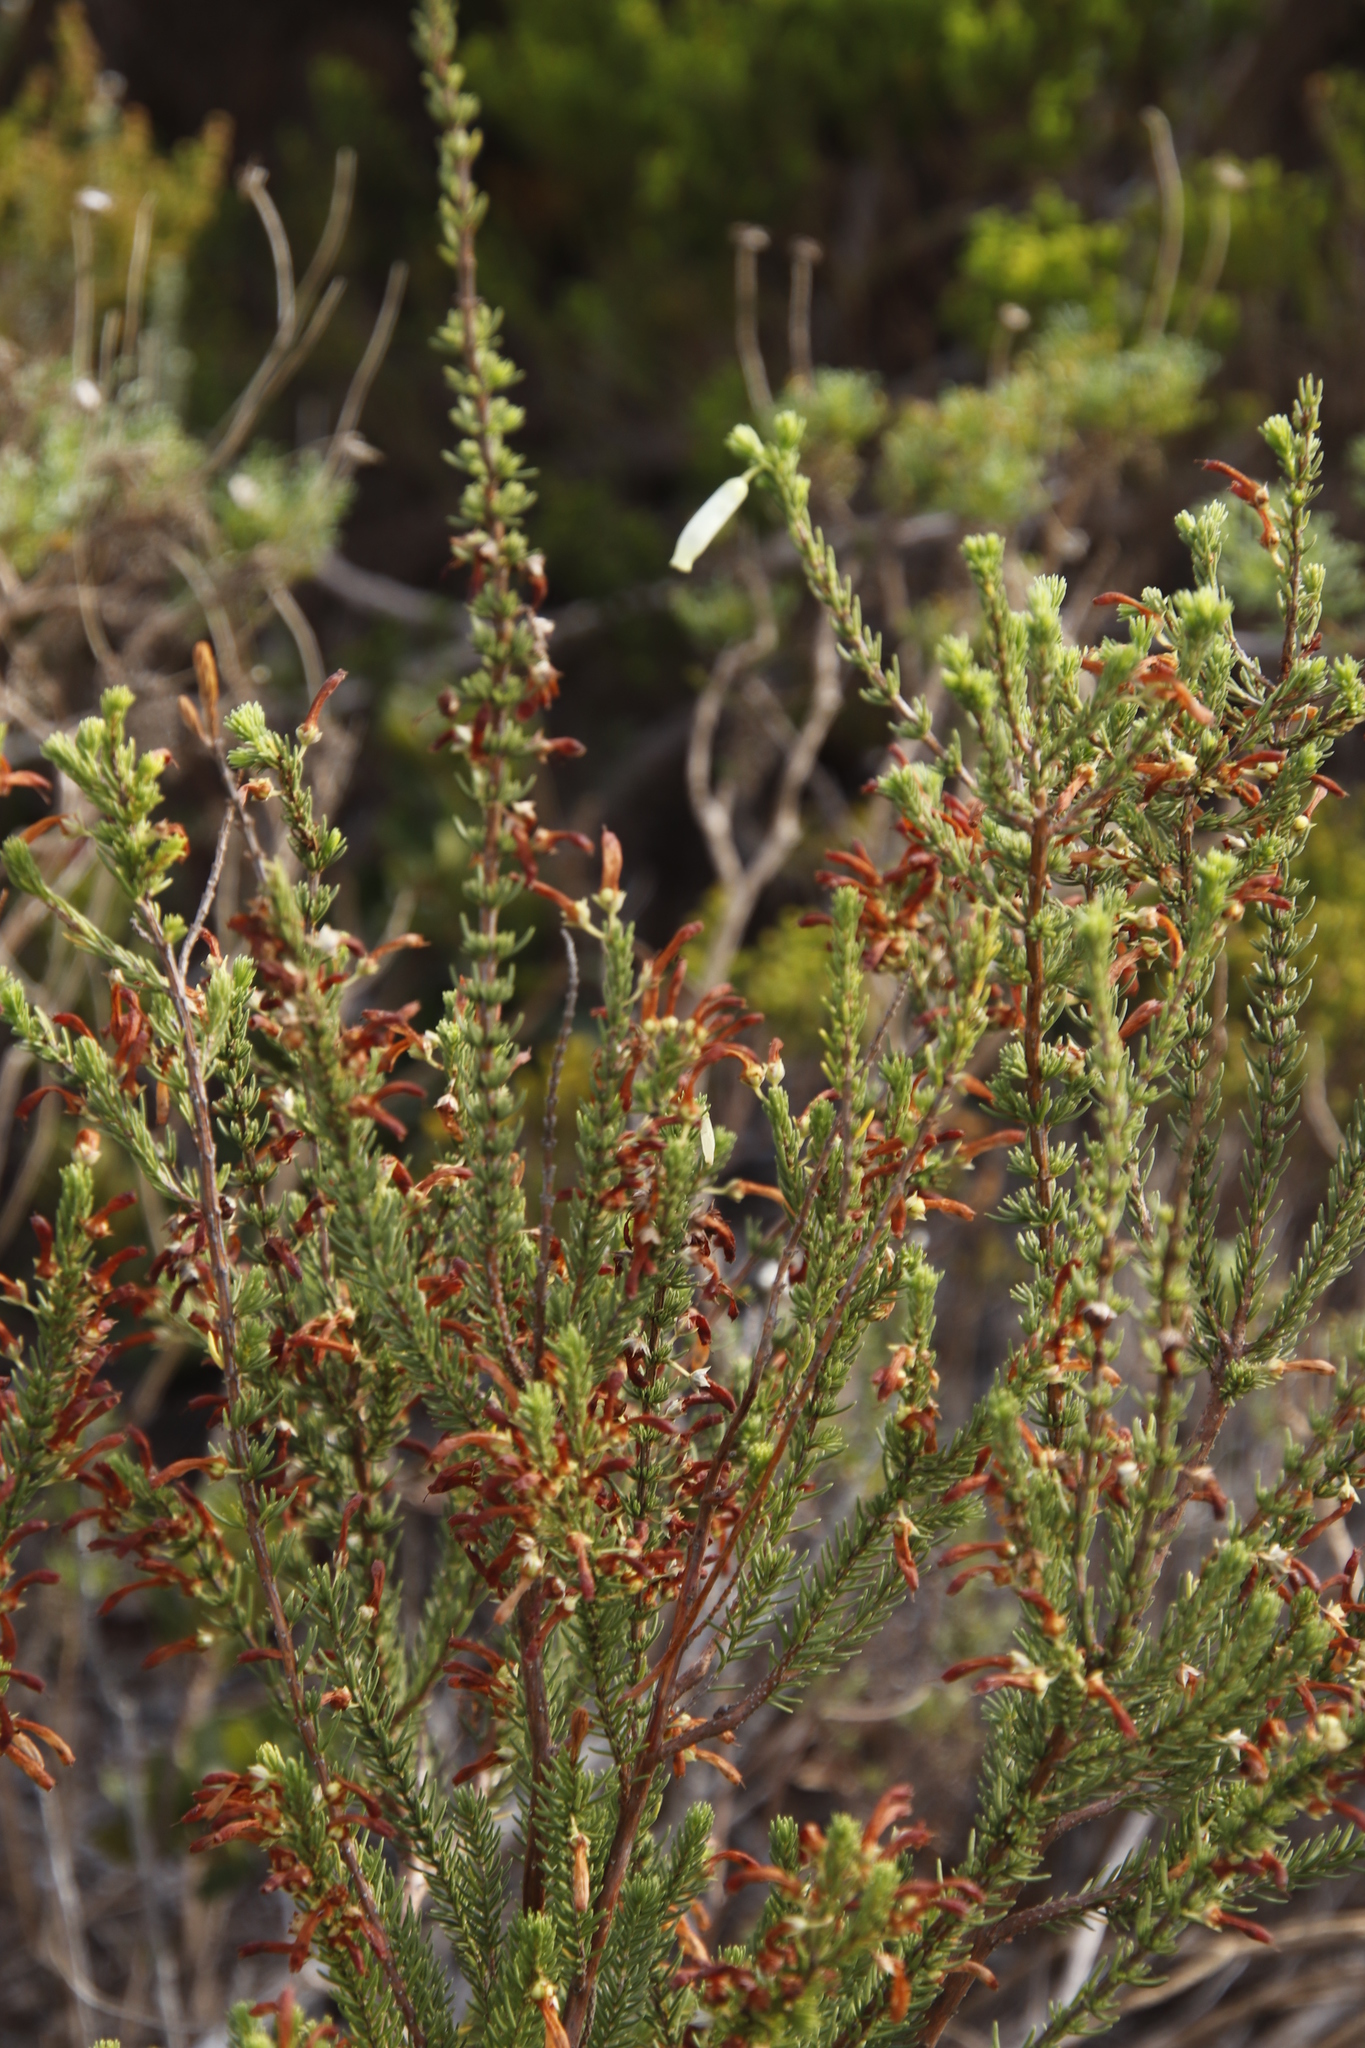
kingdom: Plantae
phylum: Tracheophyta
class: Magnoliopsida
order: Ericales
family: Ericaceae
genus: Erica
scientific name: Erica mammosa
